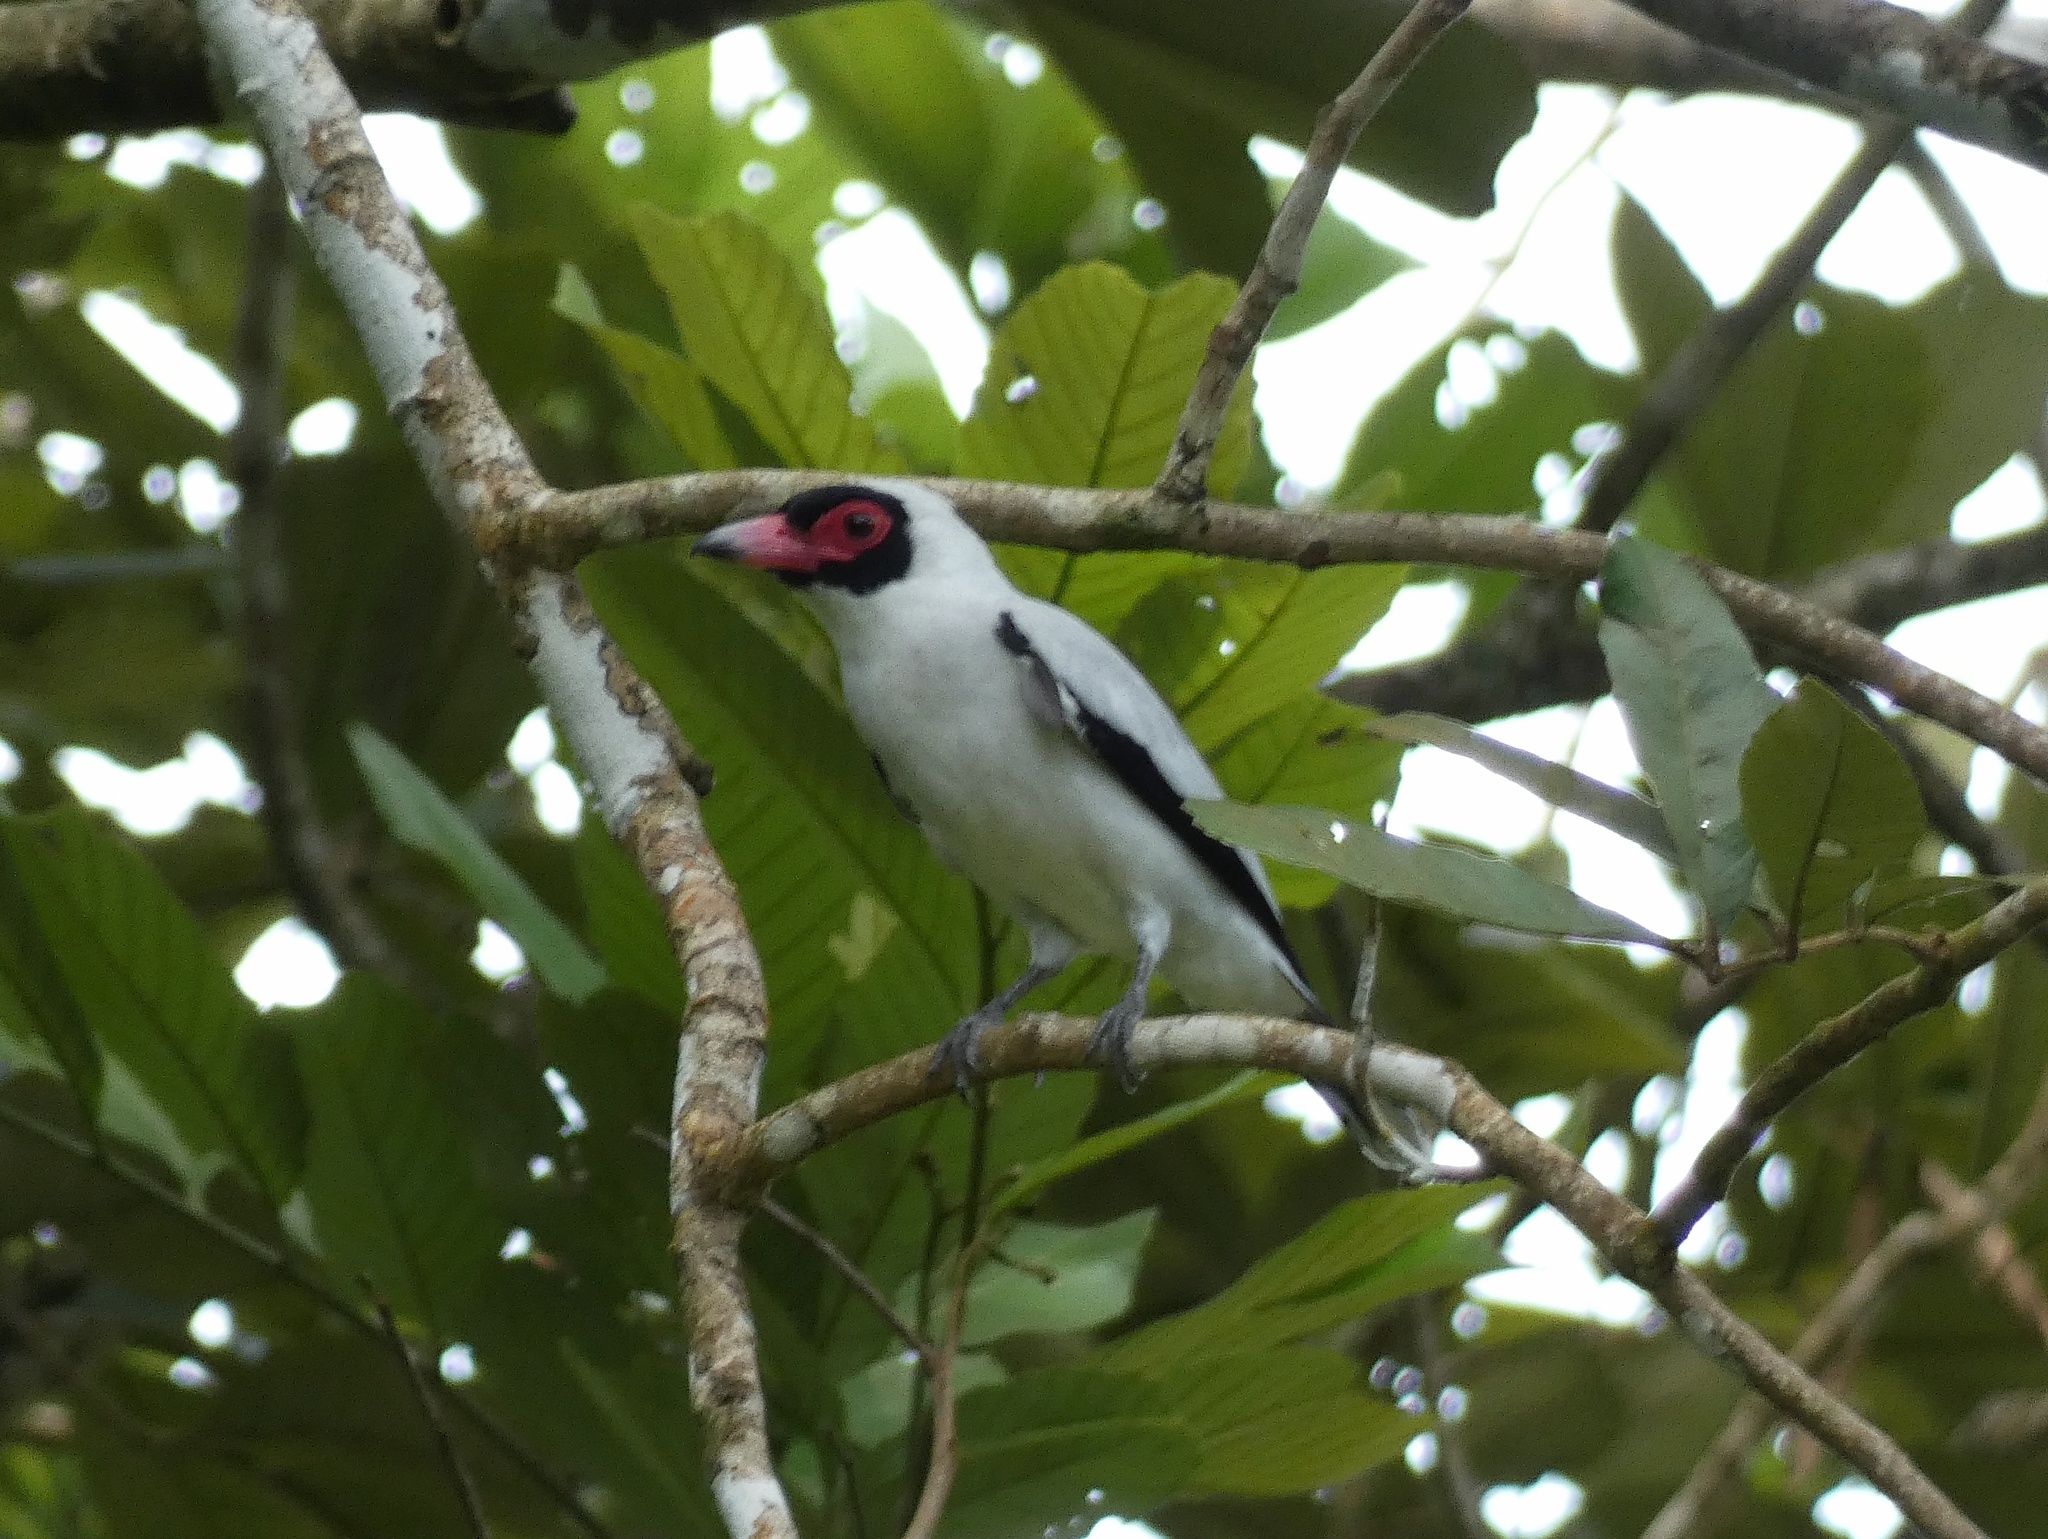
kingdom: Animalia
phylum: Chordata
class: Aves
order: Passeriformes
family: Cotingidae
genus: Tityra
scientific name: Tityra semifasciata
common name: Masked tityra
